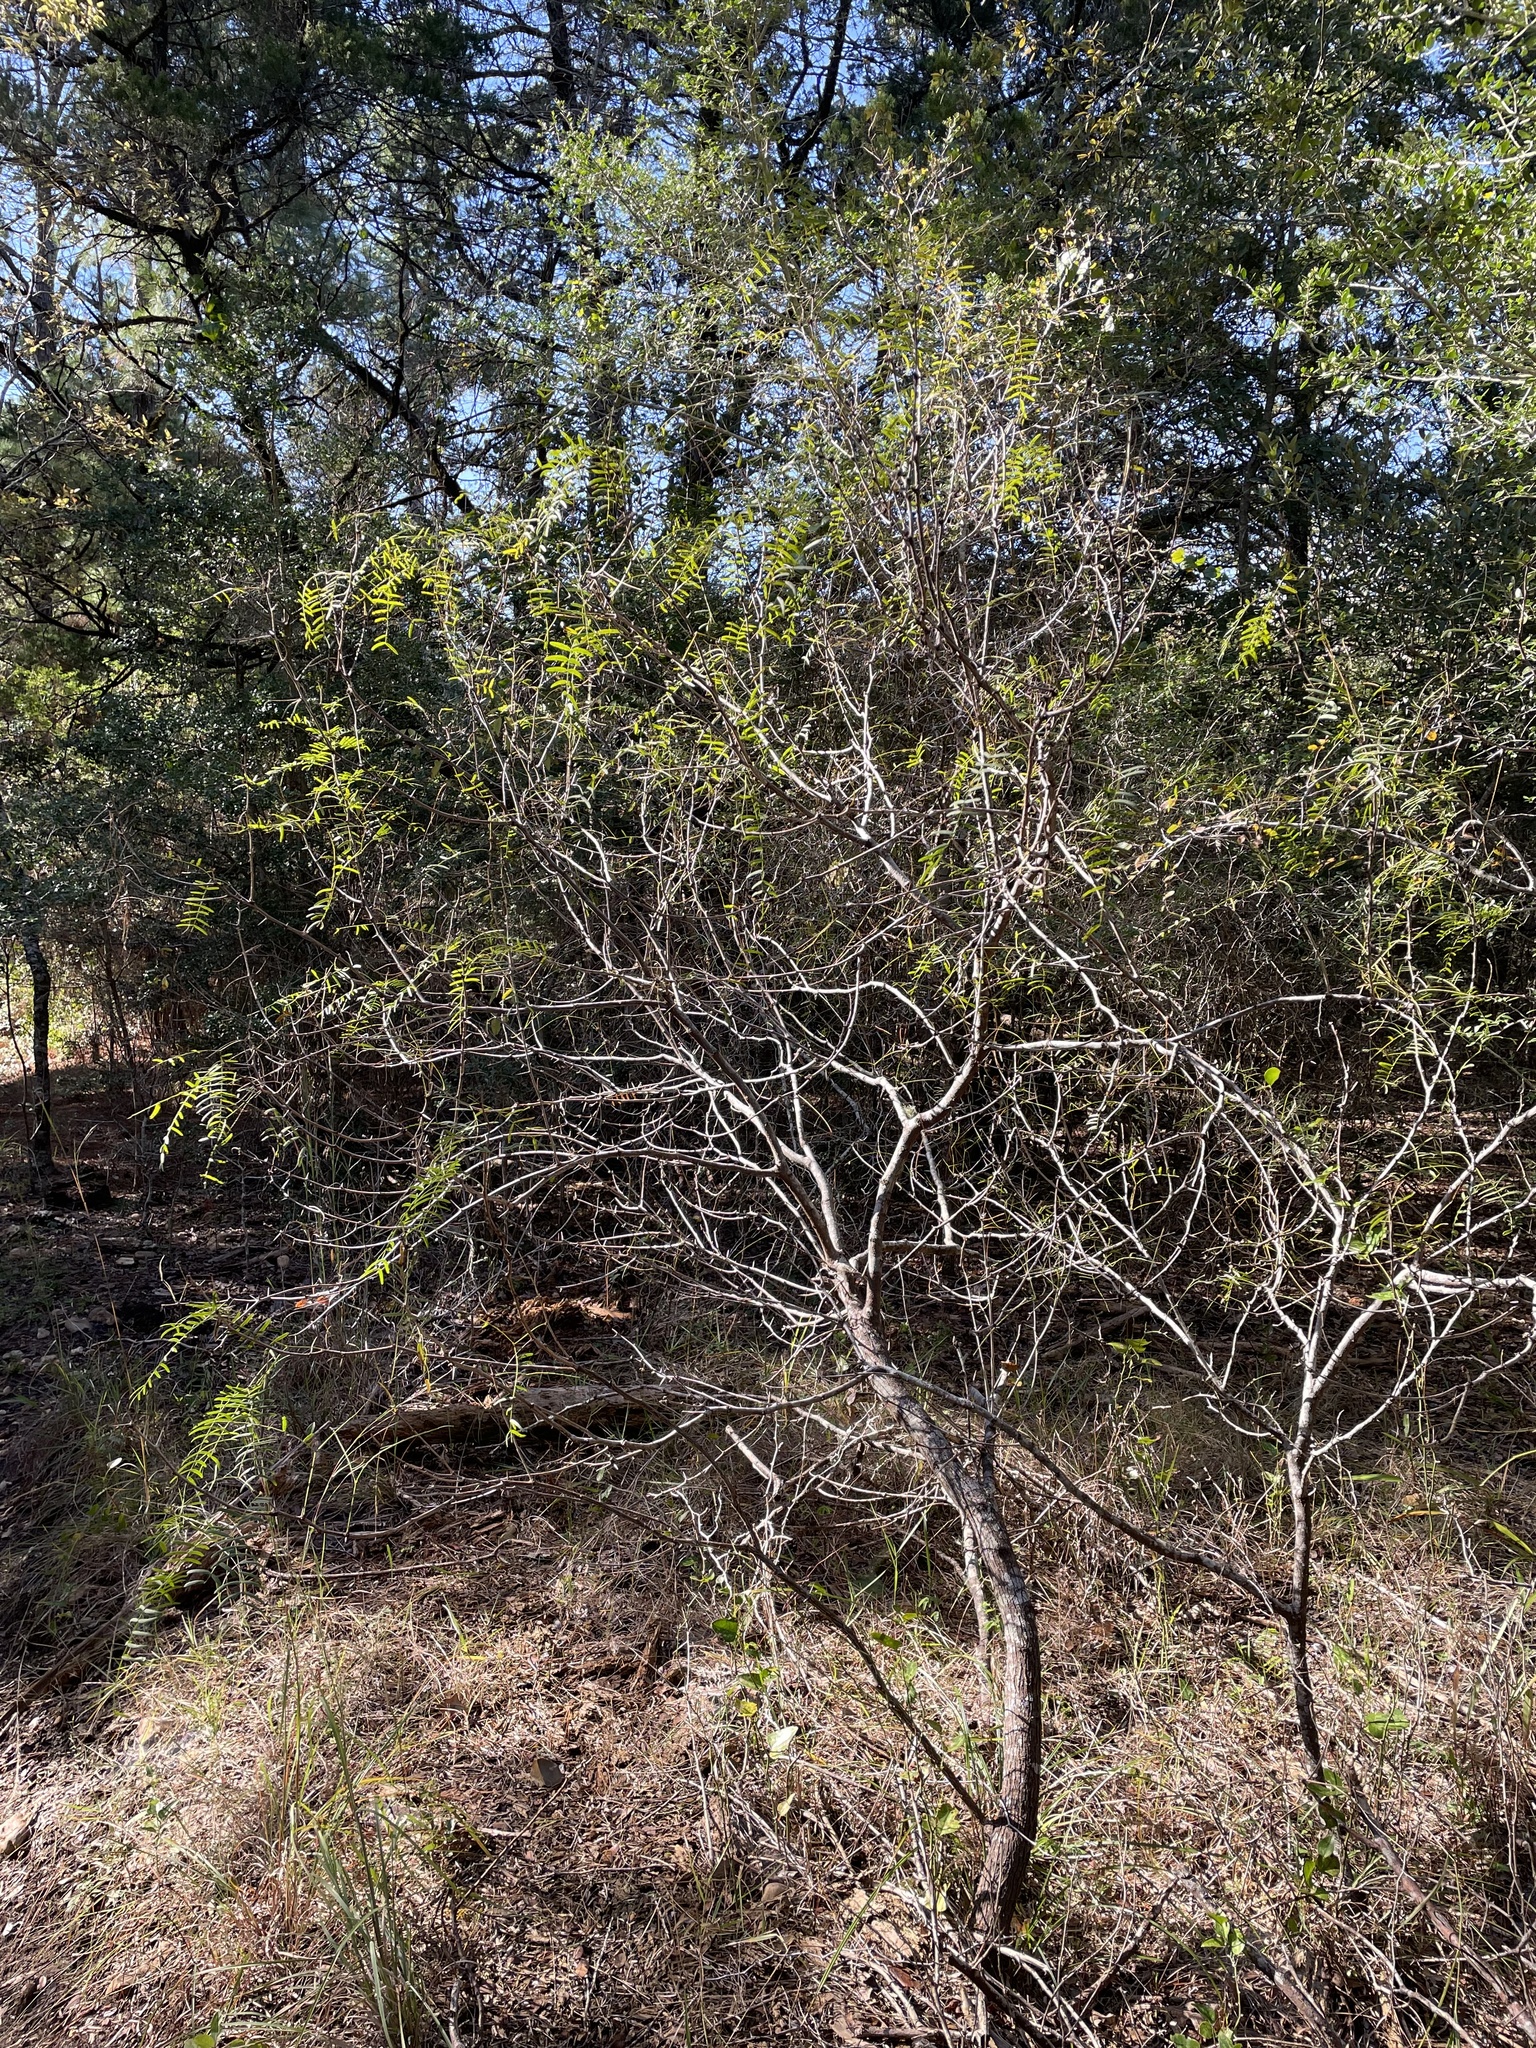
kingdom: Plantae
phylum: Tracheophyta
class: Magnoliopsida
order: Fabales
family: Fabaceae
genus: Prosopis
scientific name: Prosopis glandulosa
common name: Honey mesquite
